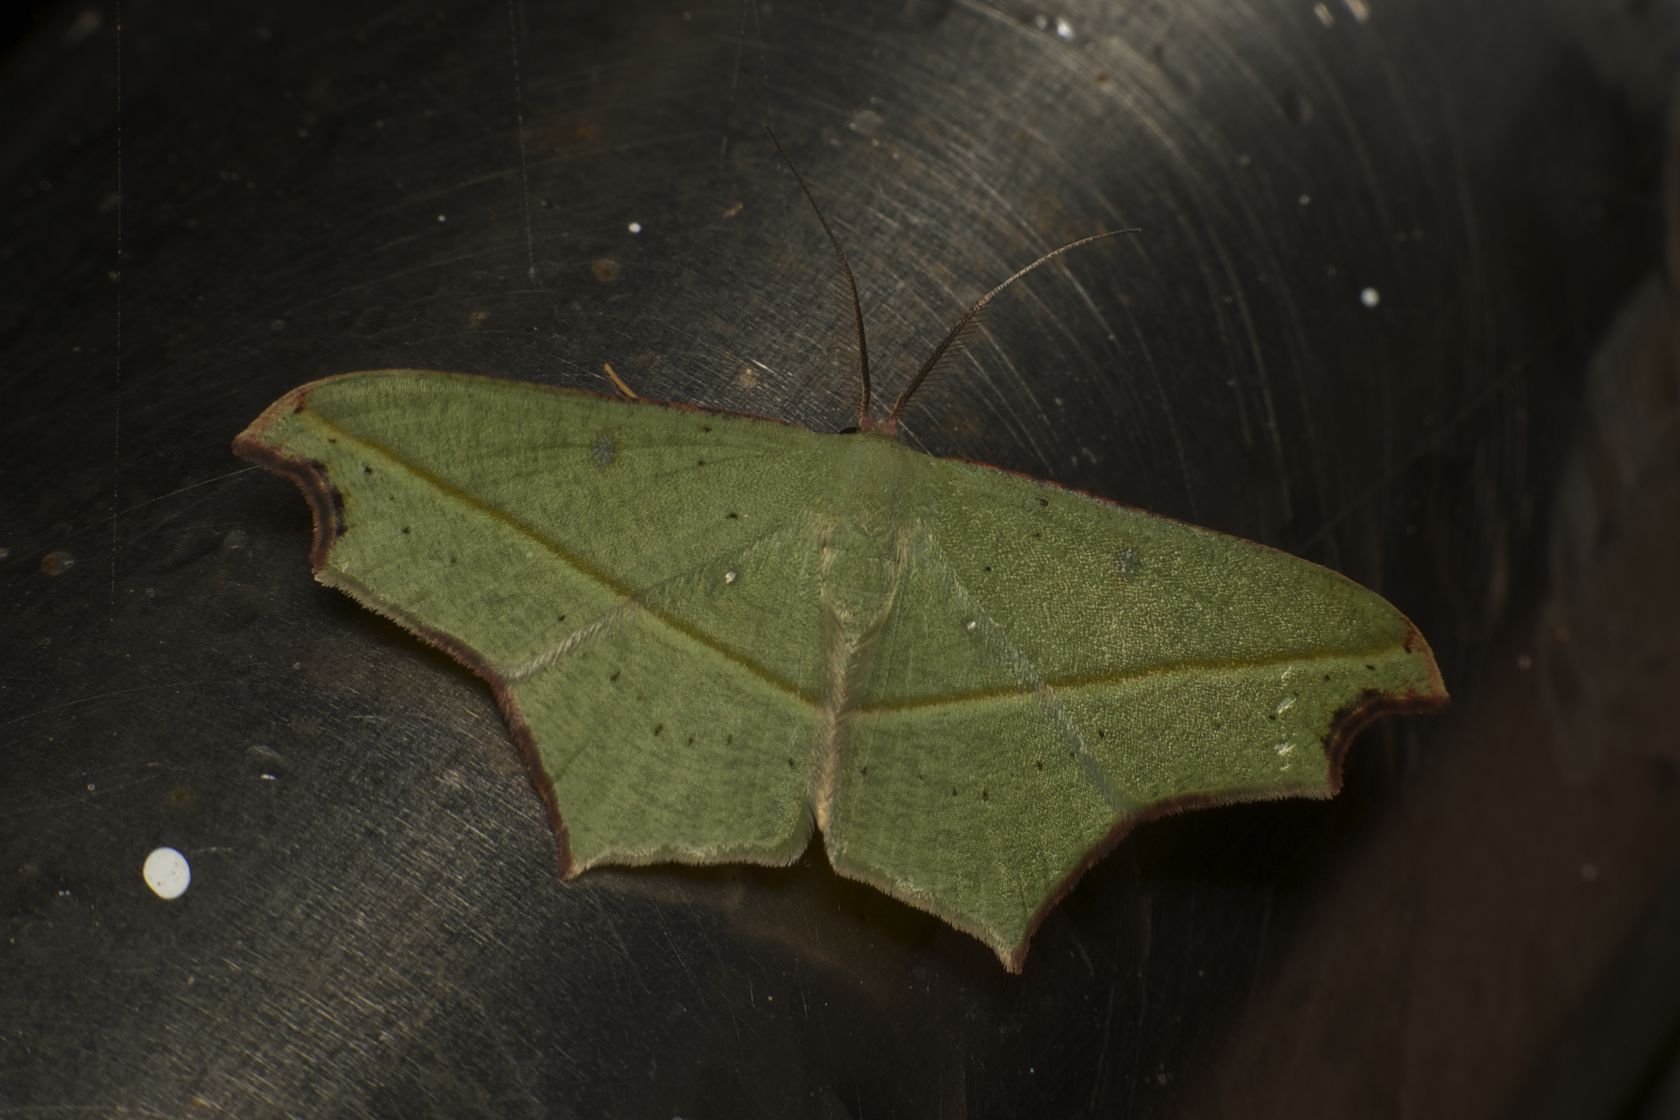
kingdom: Animalia
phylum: Arthropoda
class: Insecta
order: Lepidoptera
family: Geometridae
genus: Traminda
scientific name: Traminda aventiaria
